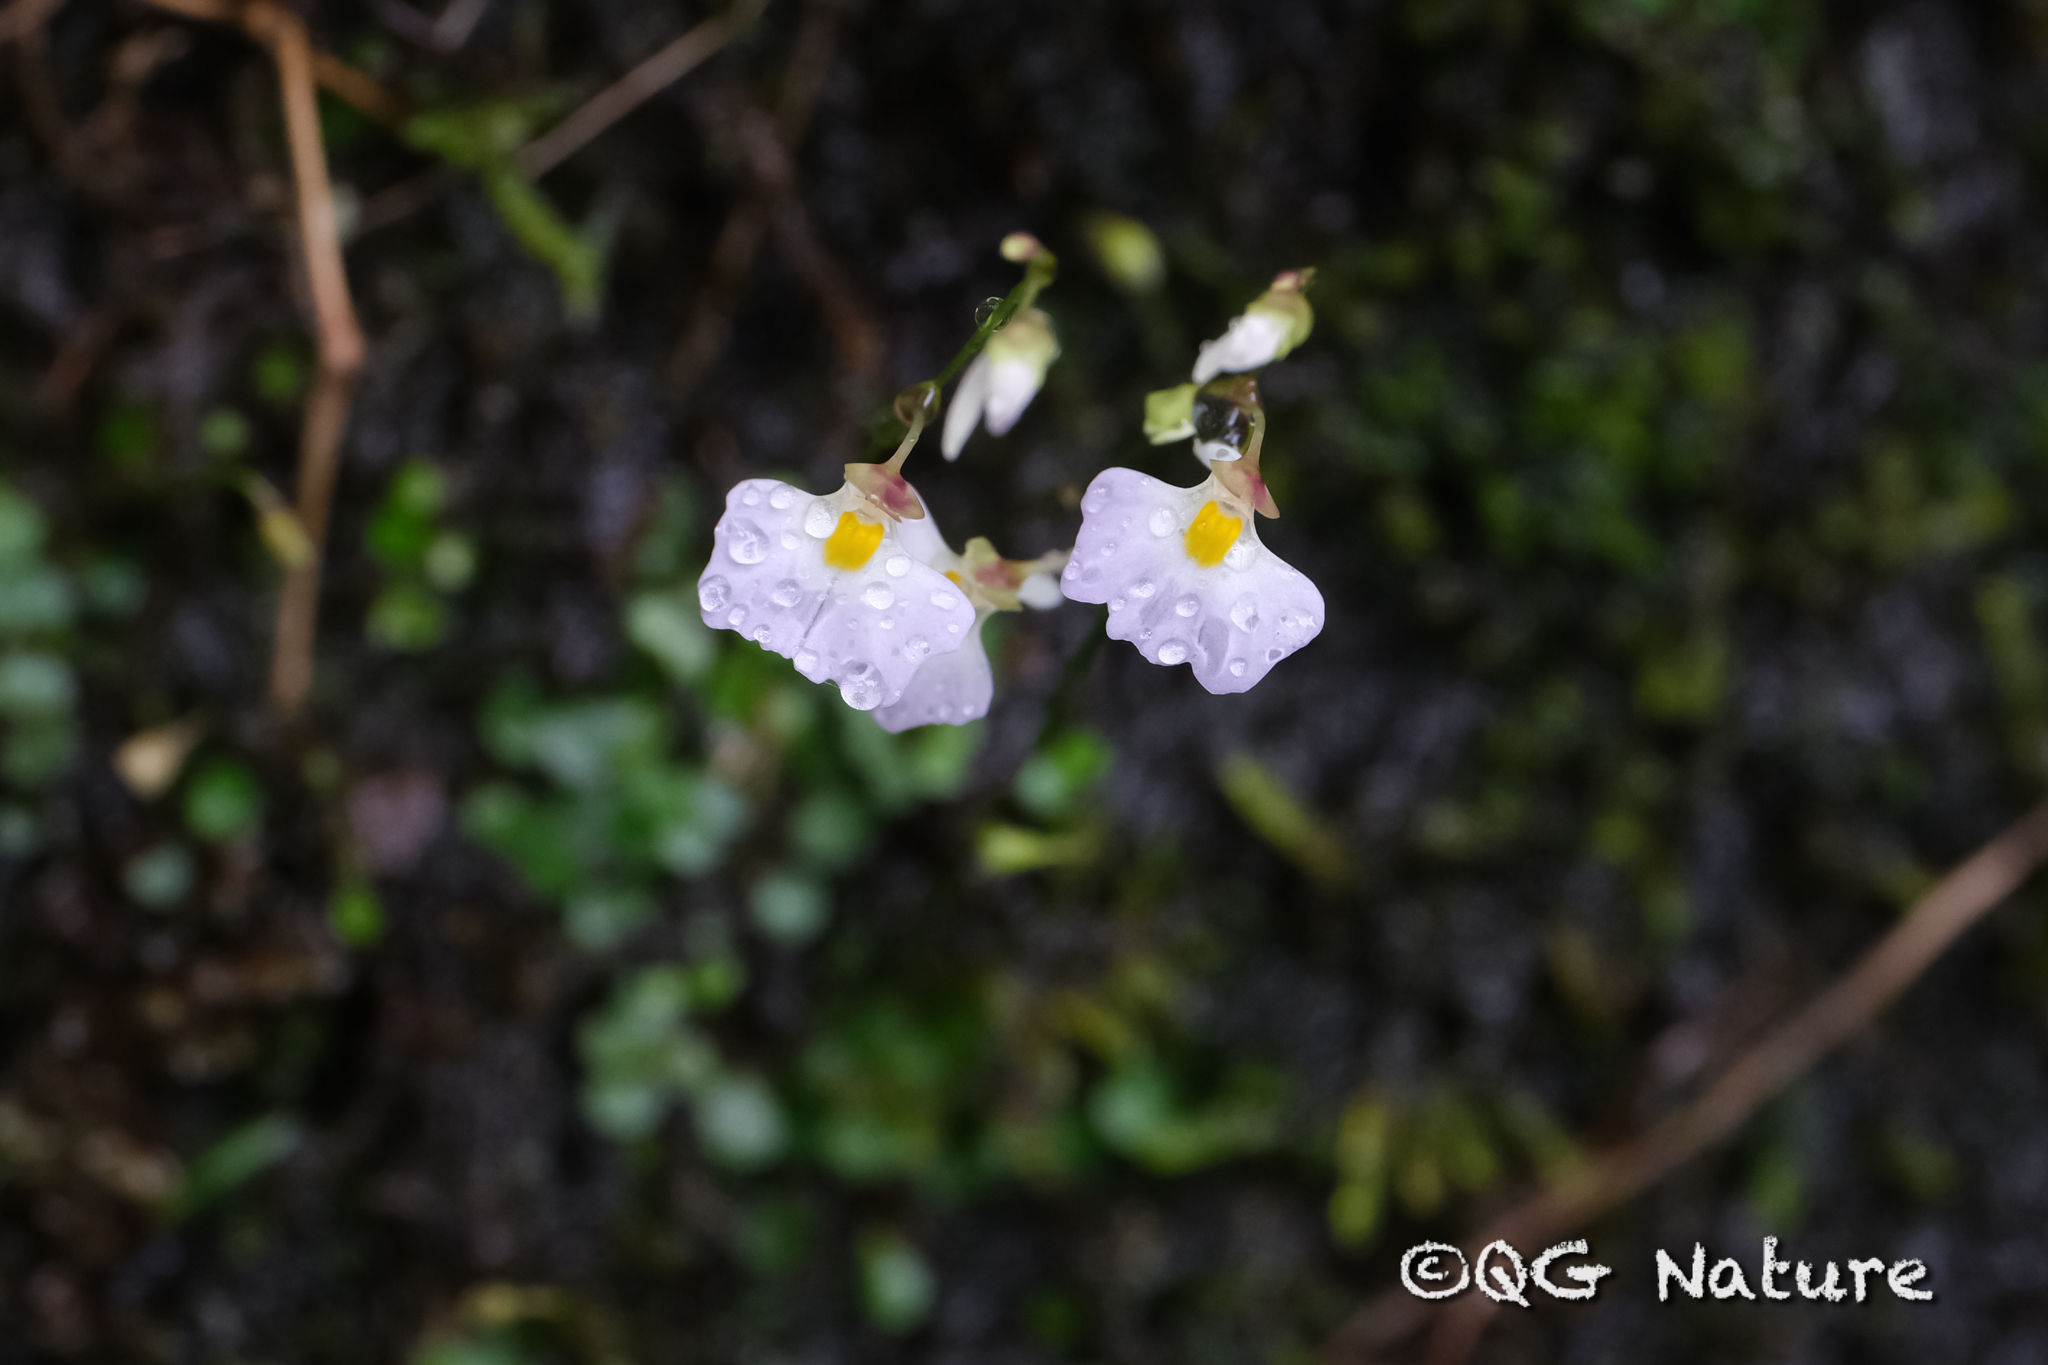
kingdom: Plantae
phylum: Tracheophyta
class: Magnoliopsida
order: Lamiales
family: Lentibulariaceae
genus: Utricularia
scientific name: Utricularia striatula
